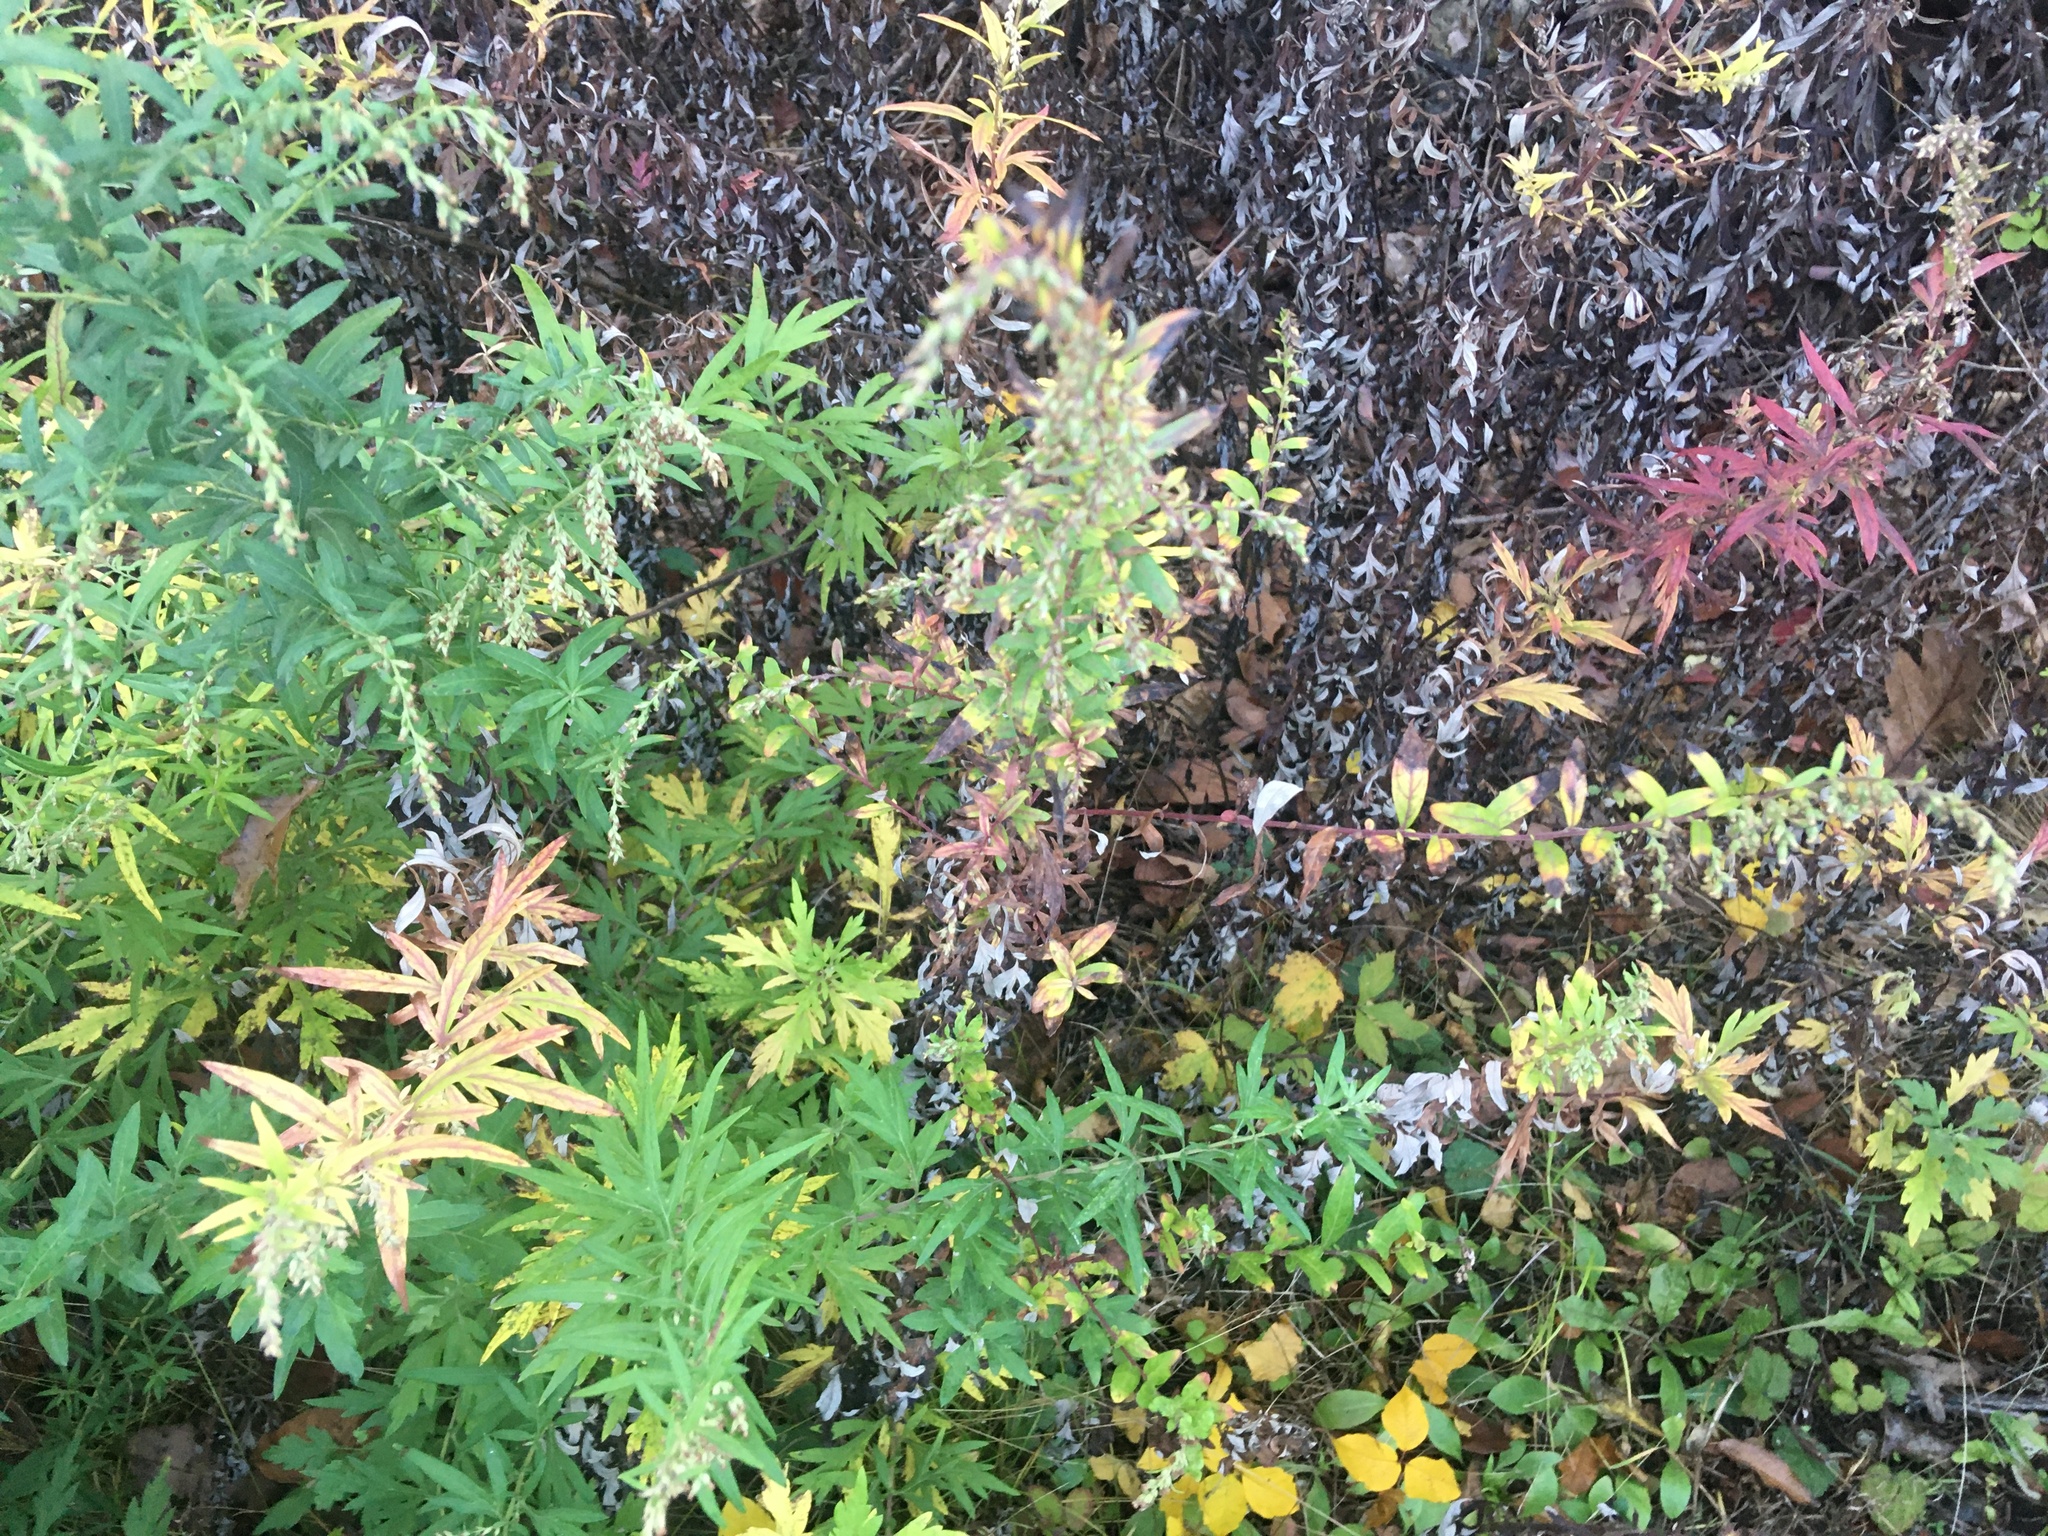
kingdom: Plantae
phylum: Tracheophyta
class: Magnoliopsida
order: Asterales
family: Asteraceae
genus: Artemisia
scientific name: Artemisia vulgaris
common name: Mugwort
